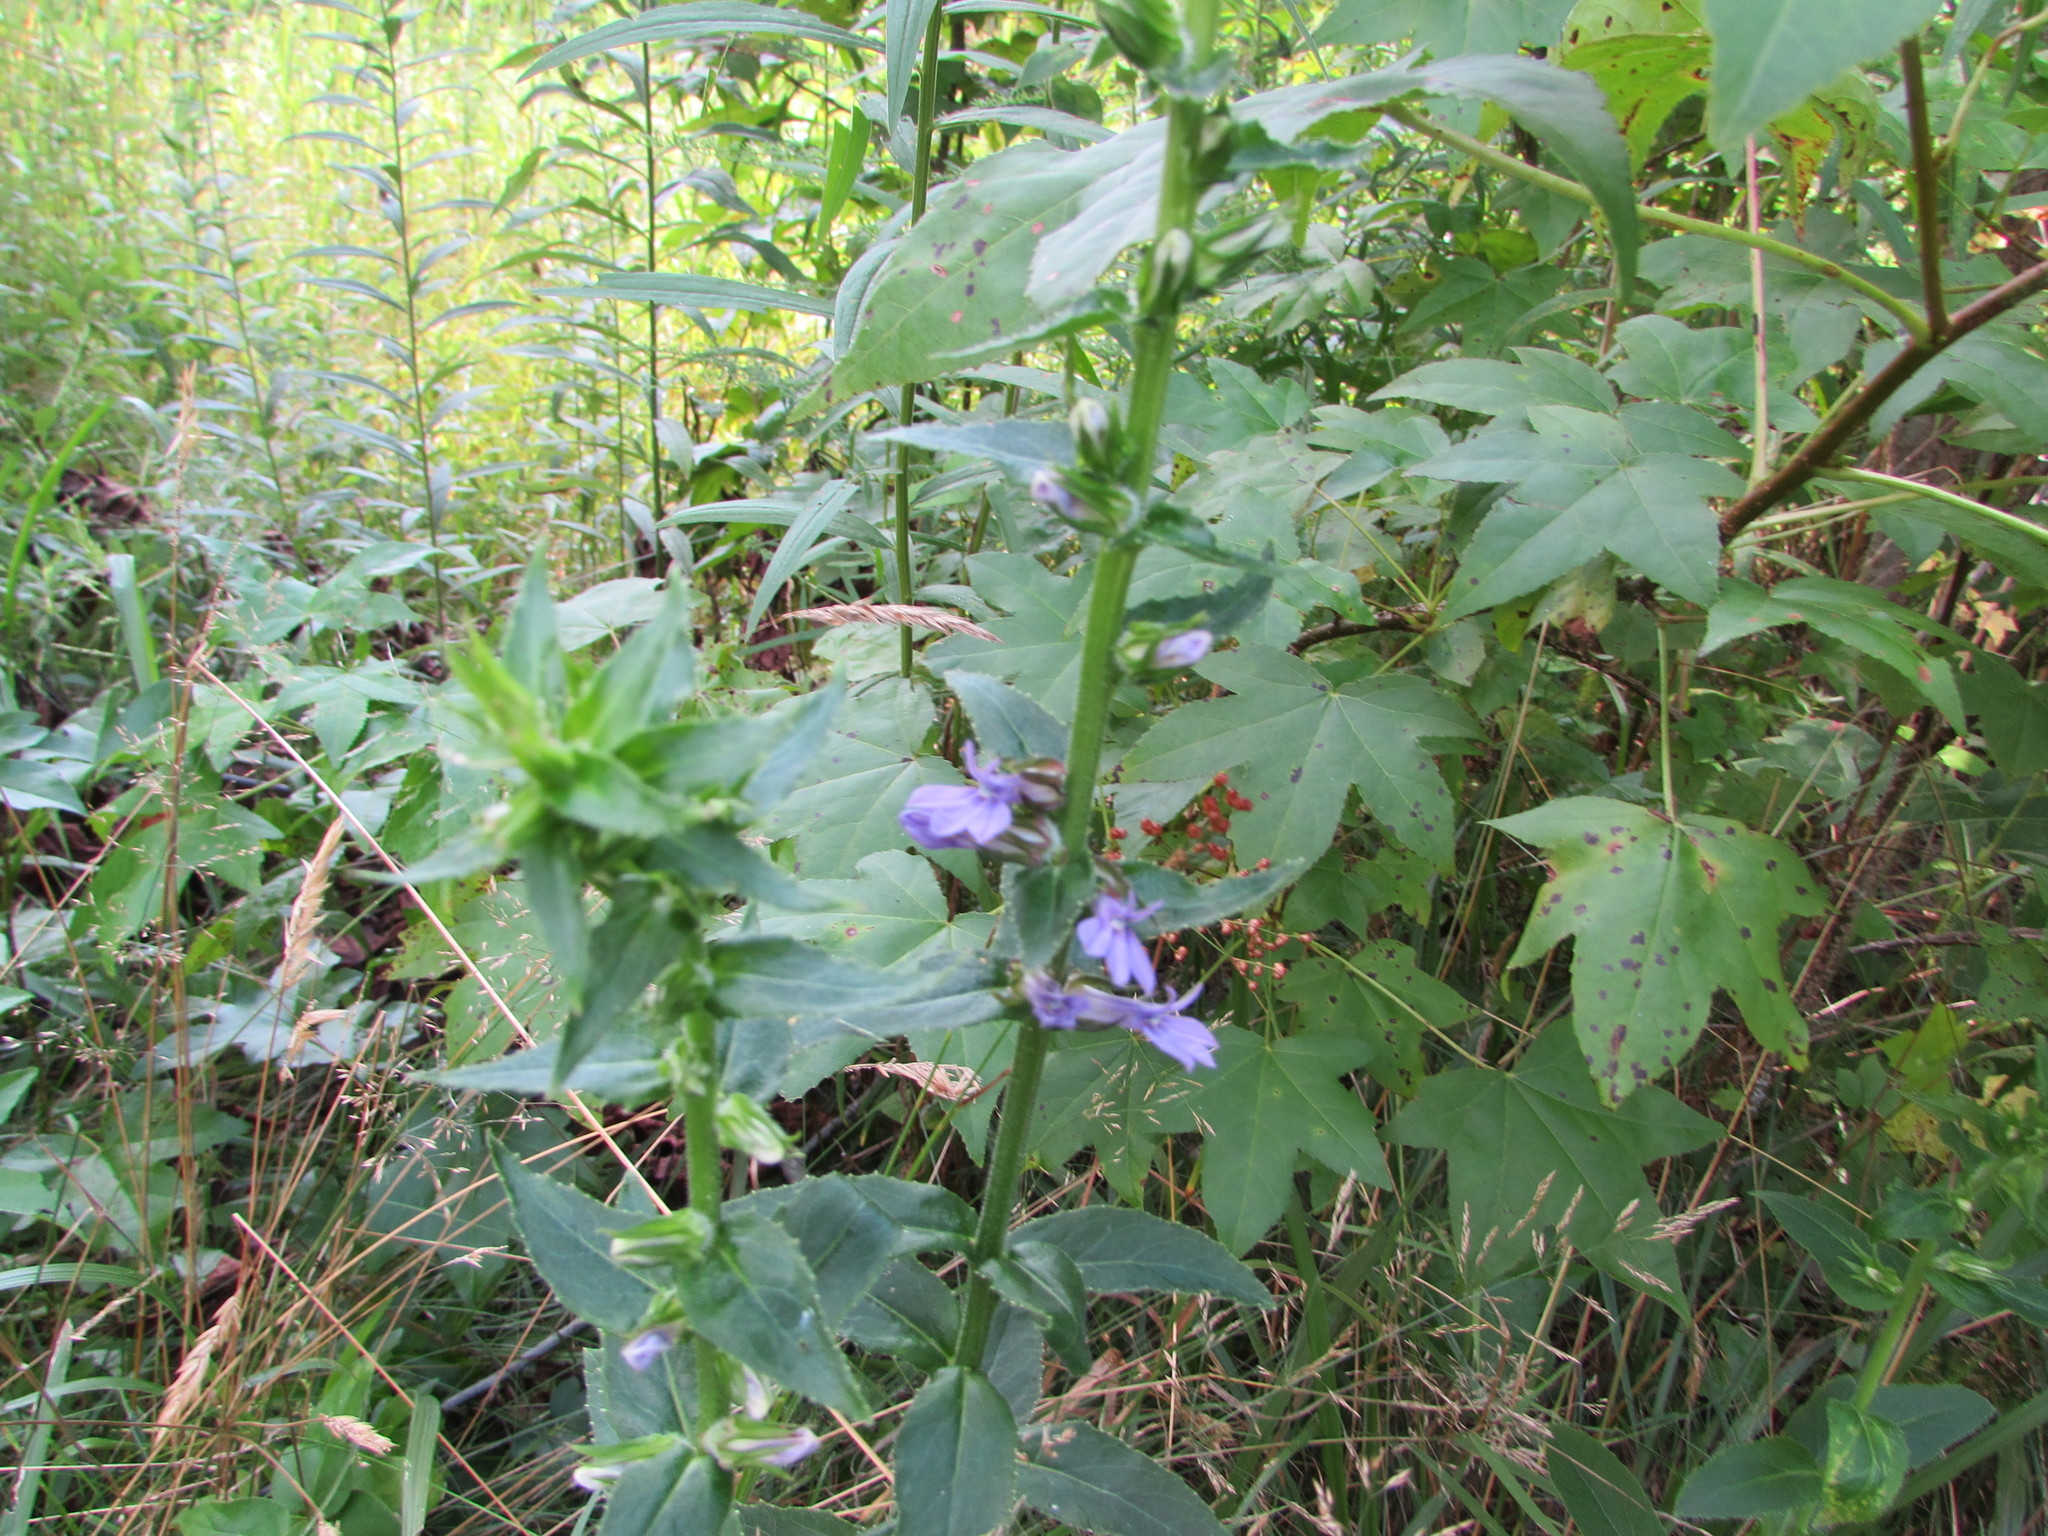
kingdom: Plantae
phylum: Tracheophyta
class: Magnoliopsida
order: Asterales
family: Campanulaceae
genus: Lobelia
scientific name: Lobelia puberula
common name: Purple dewdrop
